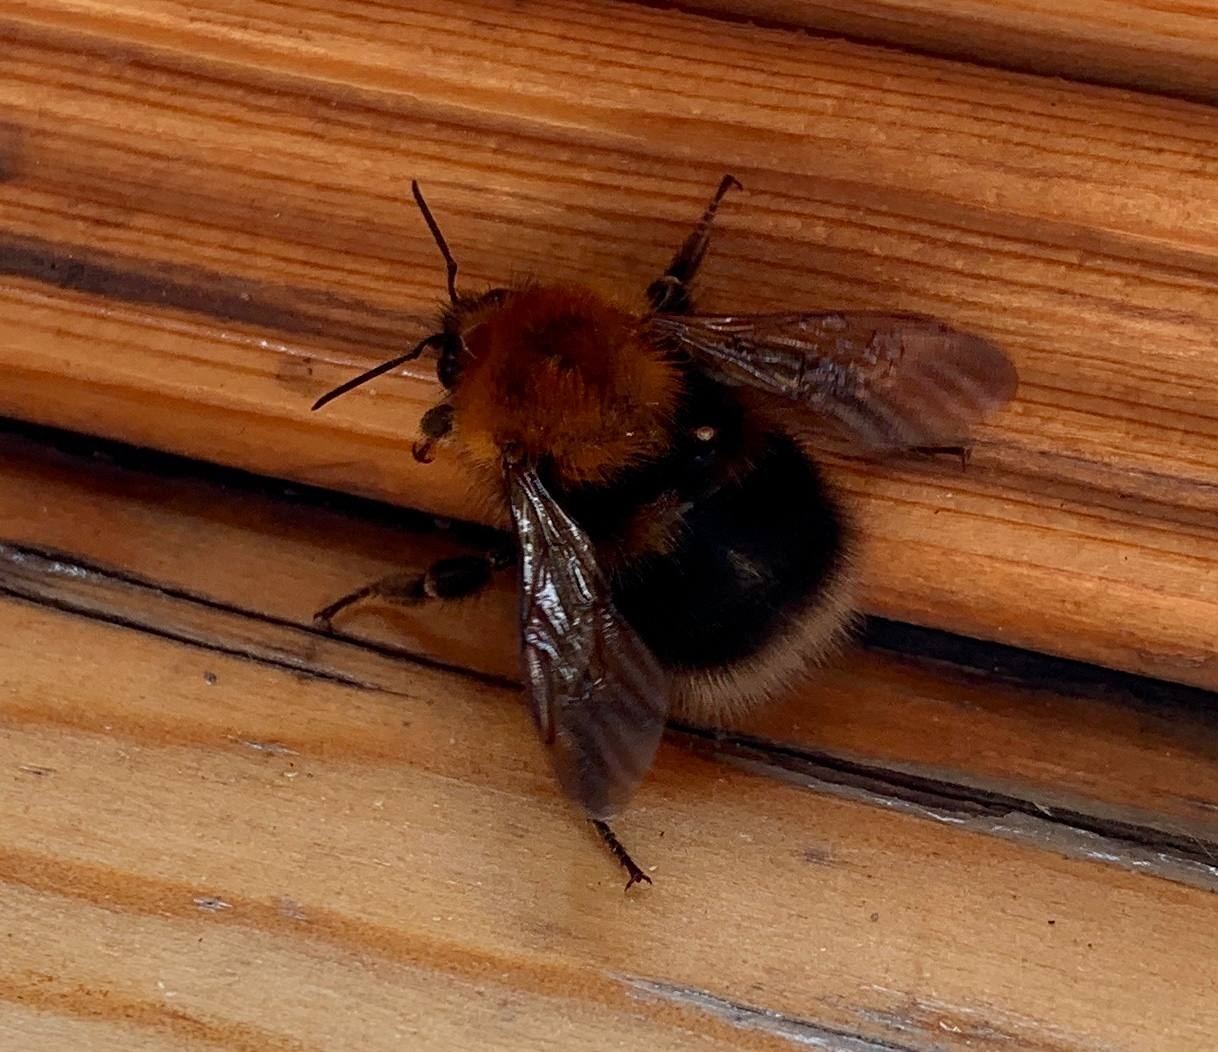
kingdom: Animalia
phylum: Arthropoda
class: Insecta
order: Hymenoptera
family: Apidae
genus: Bombus
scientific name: Bombus hypnorum
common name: New garden bumblebee
